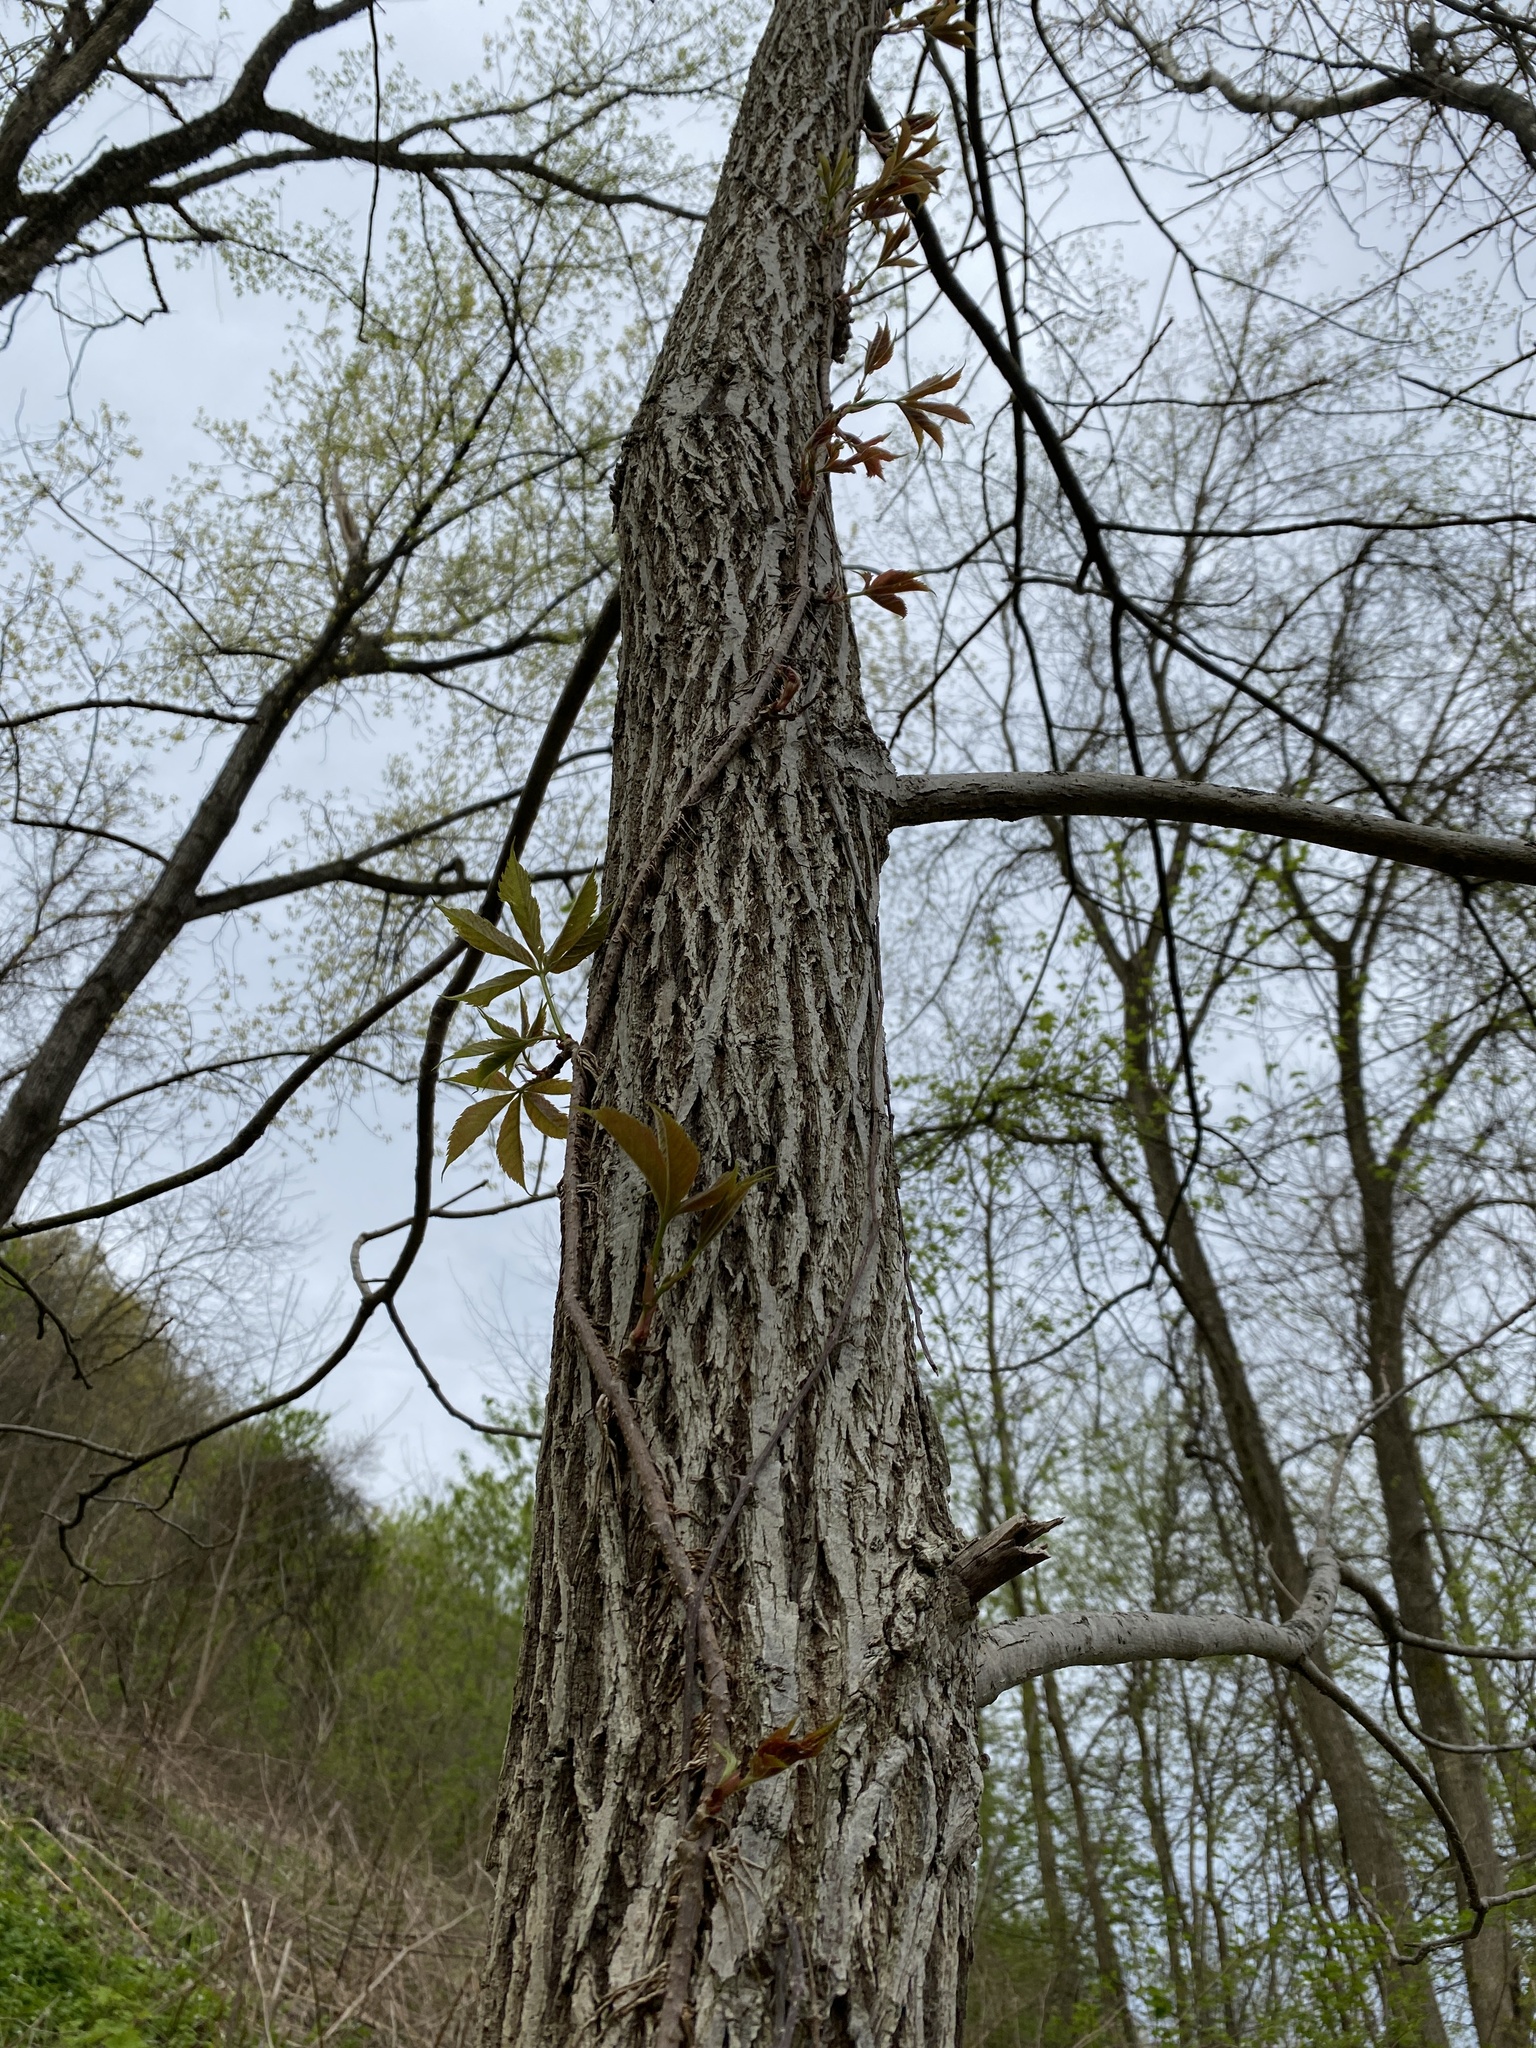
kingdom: Plantae
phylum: Tracheophyta
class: Magnoliopsida
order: Vitales
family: Vitaceae
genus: Parthenocissus
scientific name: Parthenocissus quinquefolia
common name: Virginia-creeper
